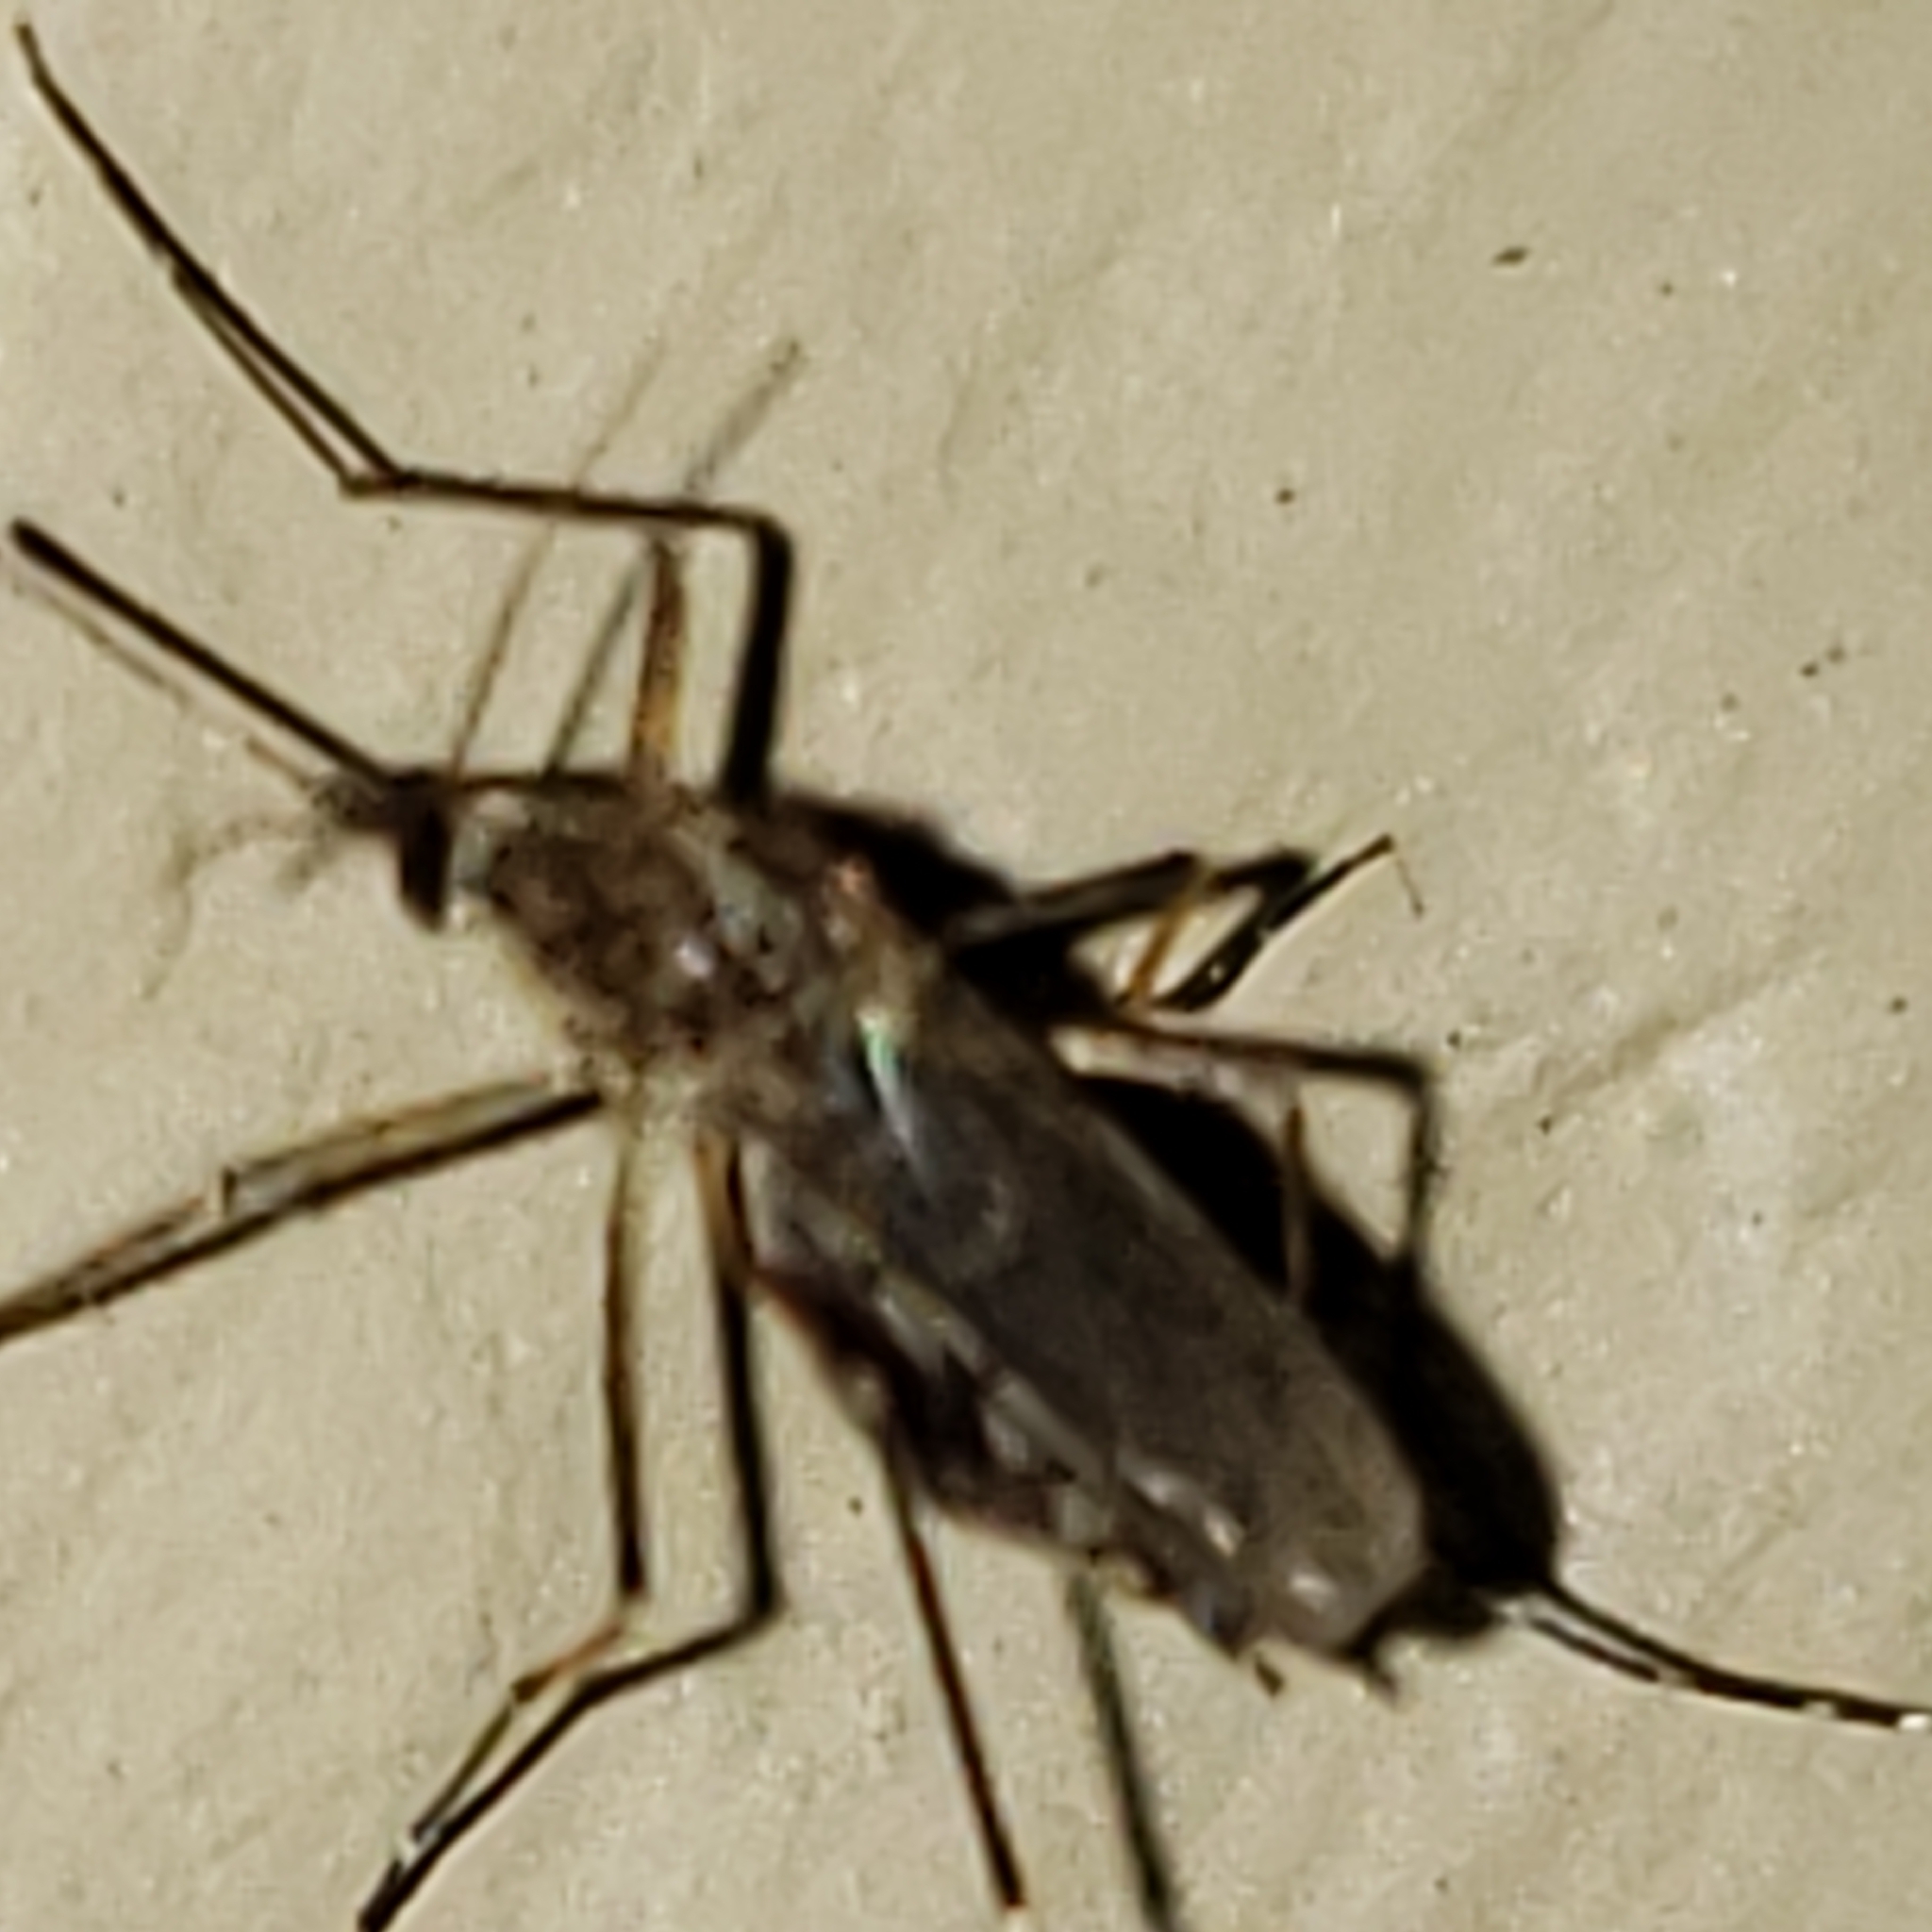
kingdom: Animalia
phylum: Arthropoda
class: Insecta
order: Diptera
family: Culicidae
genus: Aedes
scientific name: Aedes vexans
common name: Inland floodwater mosquito
